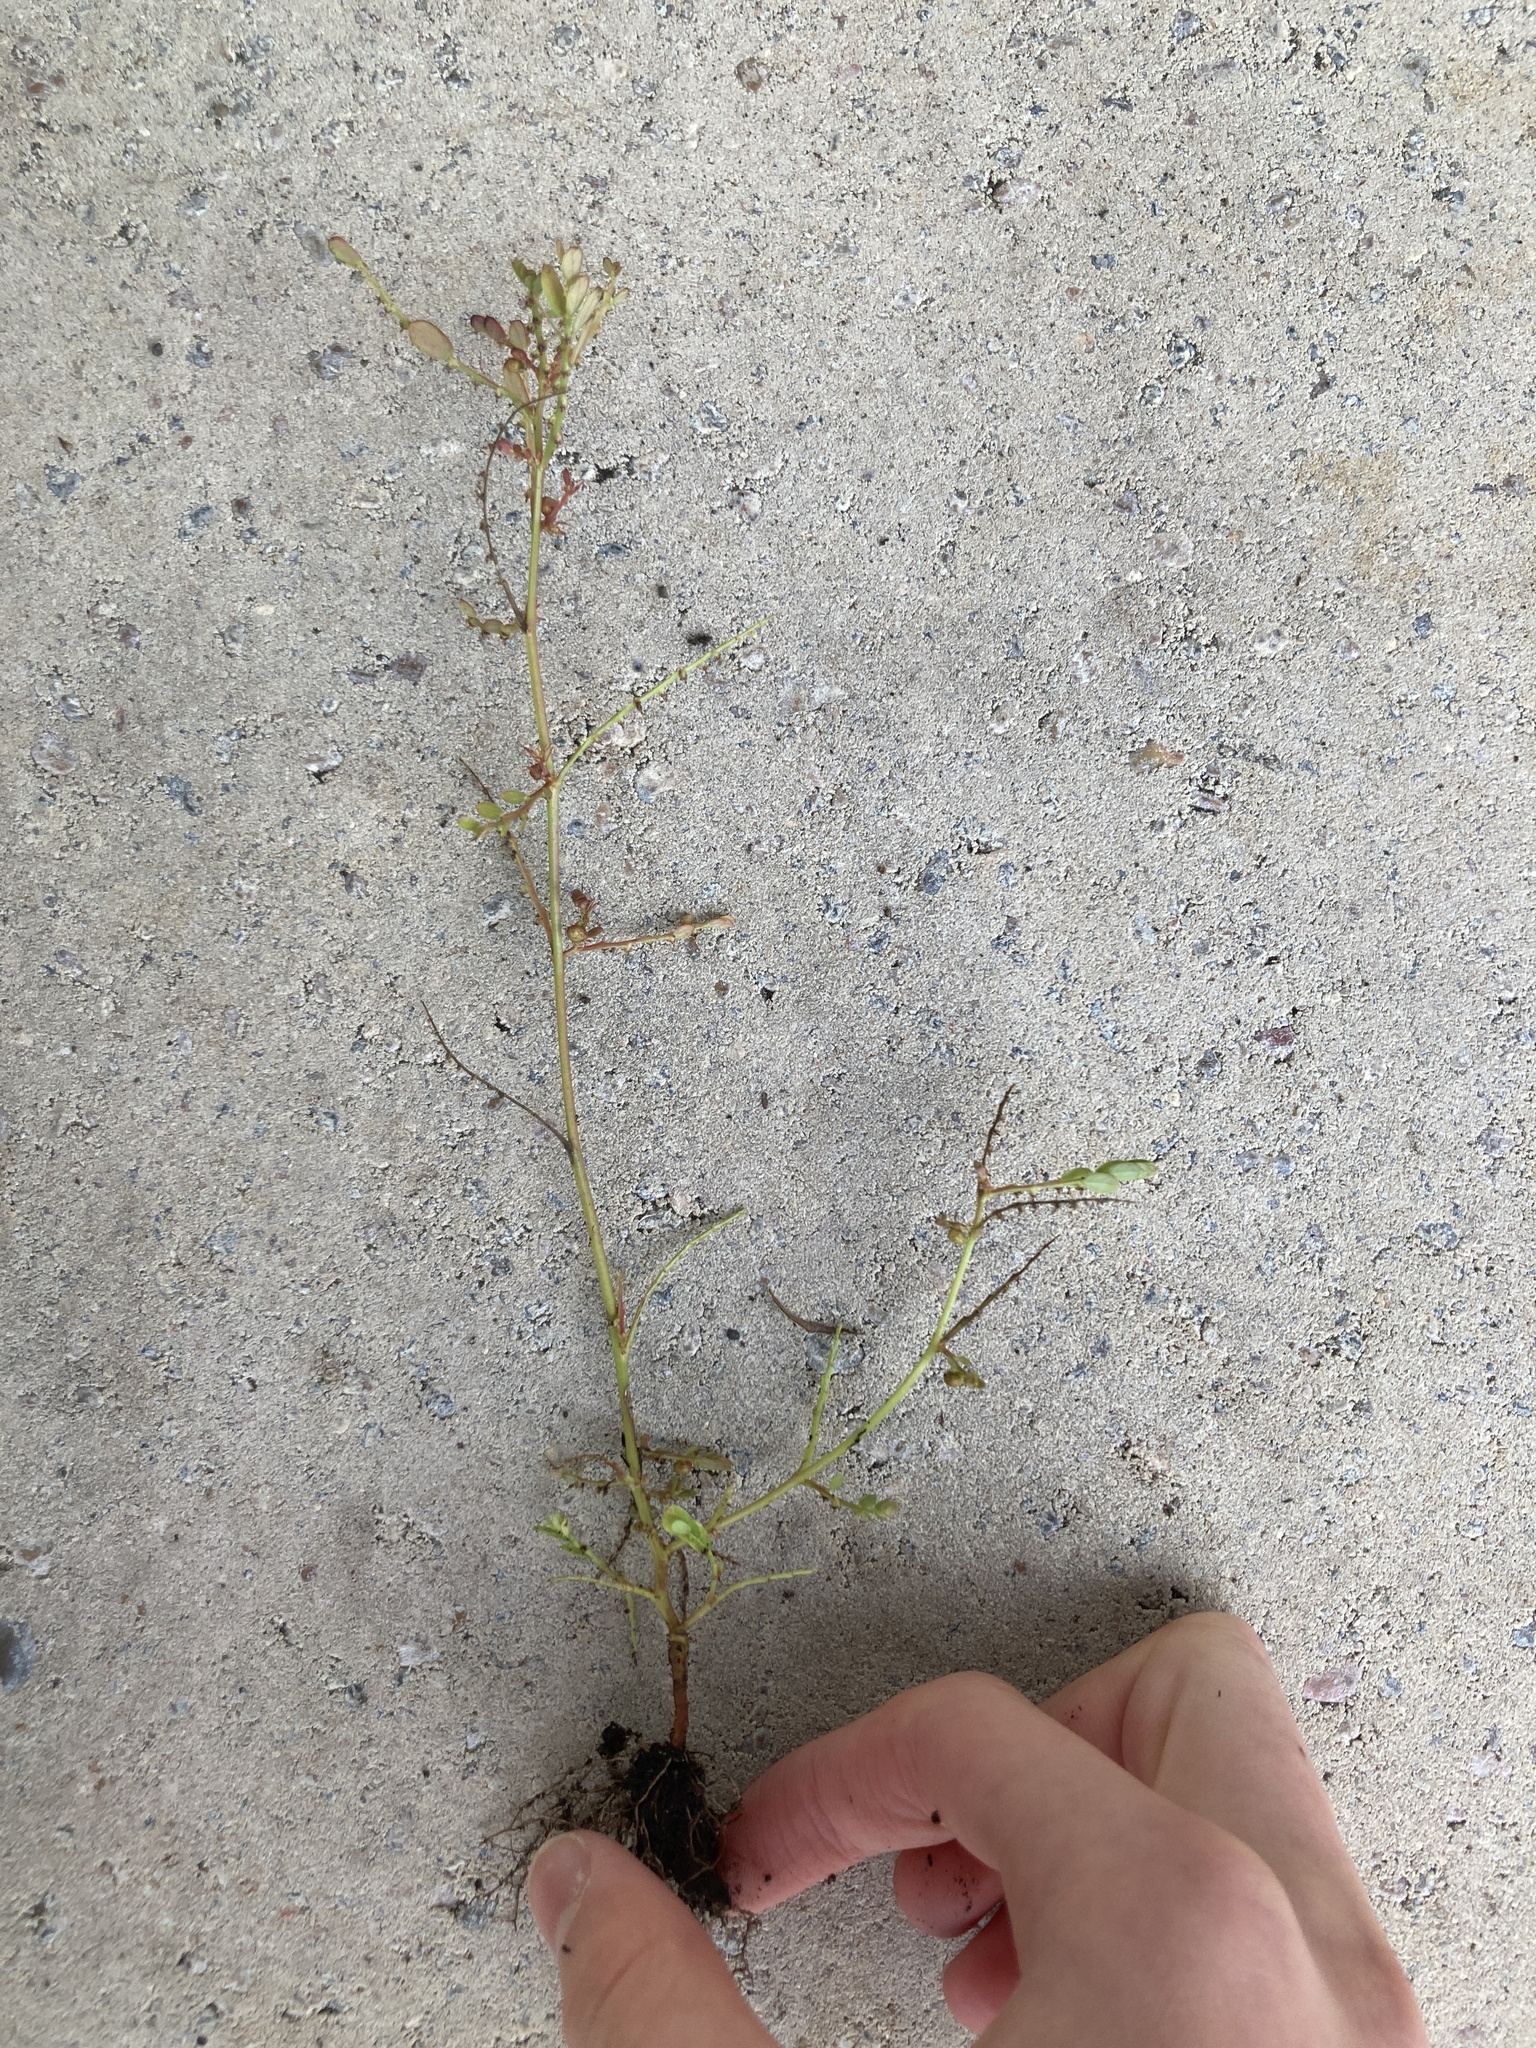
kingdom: Plantae
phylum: Tracheophyta
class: Magnoliopsida
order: Malpighiales
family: Phyllanthaceae
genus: Phyllanthus
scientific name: Phyllanthus urinaria
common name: Chamber bitter
